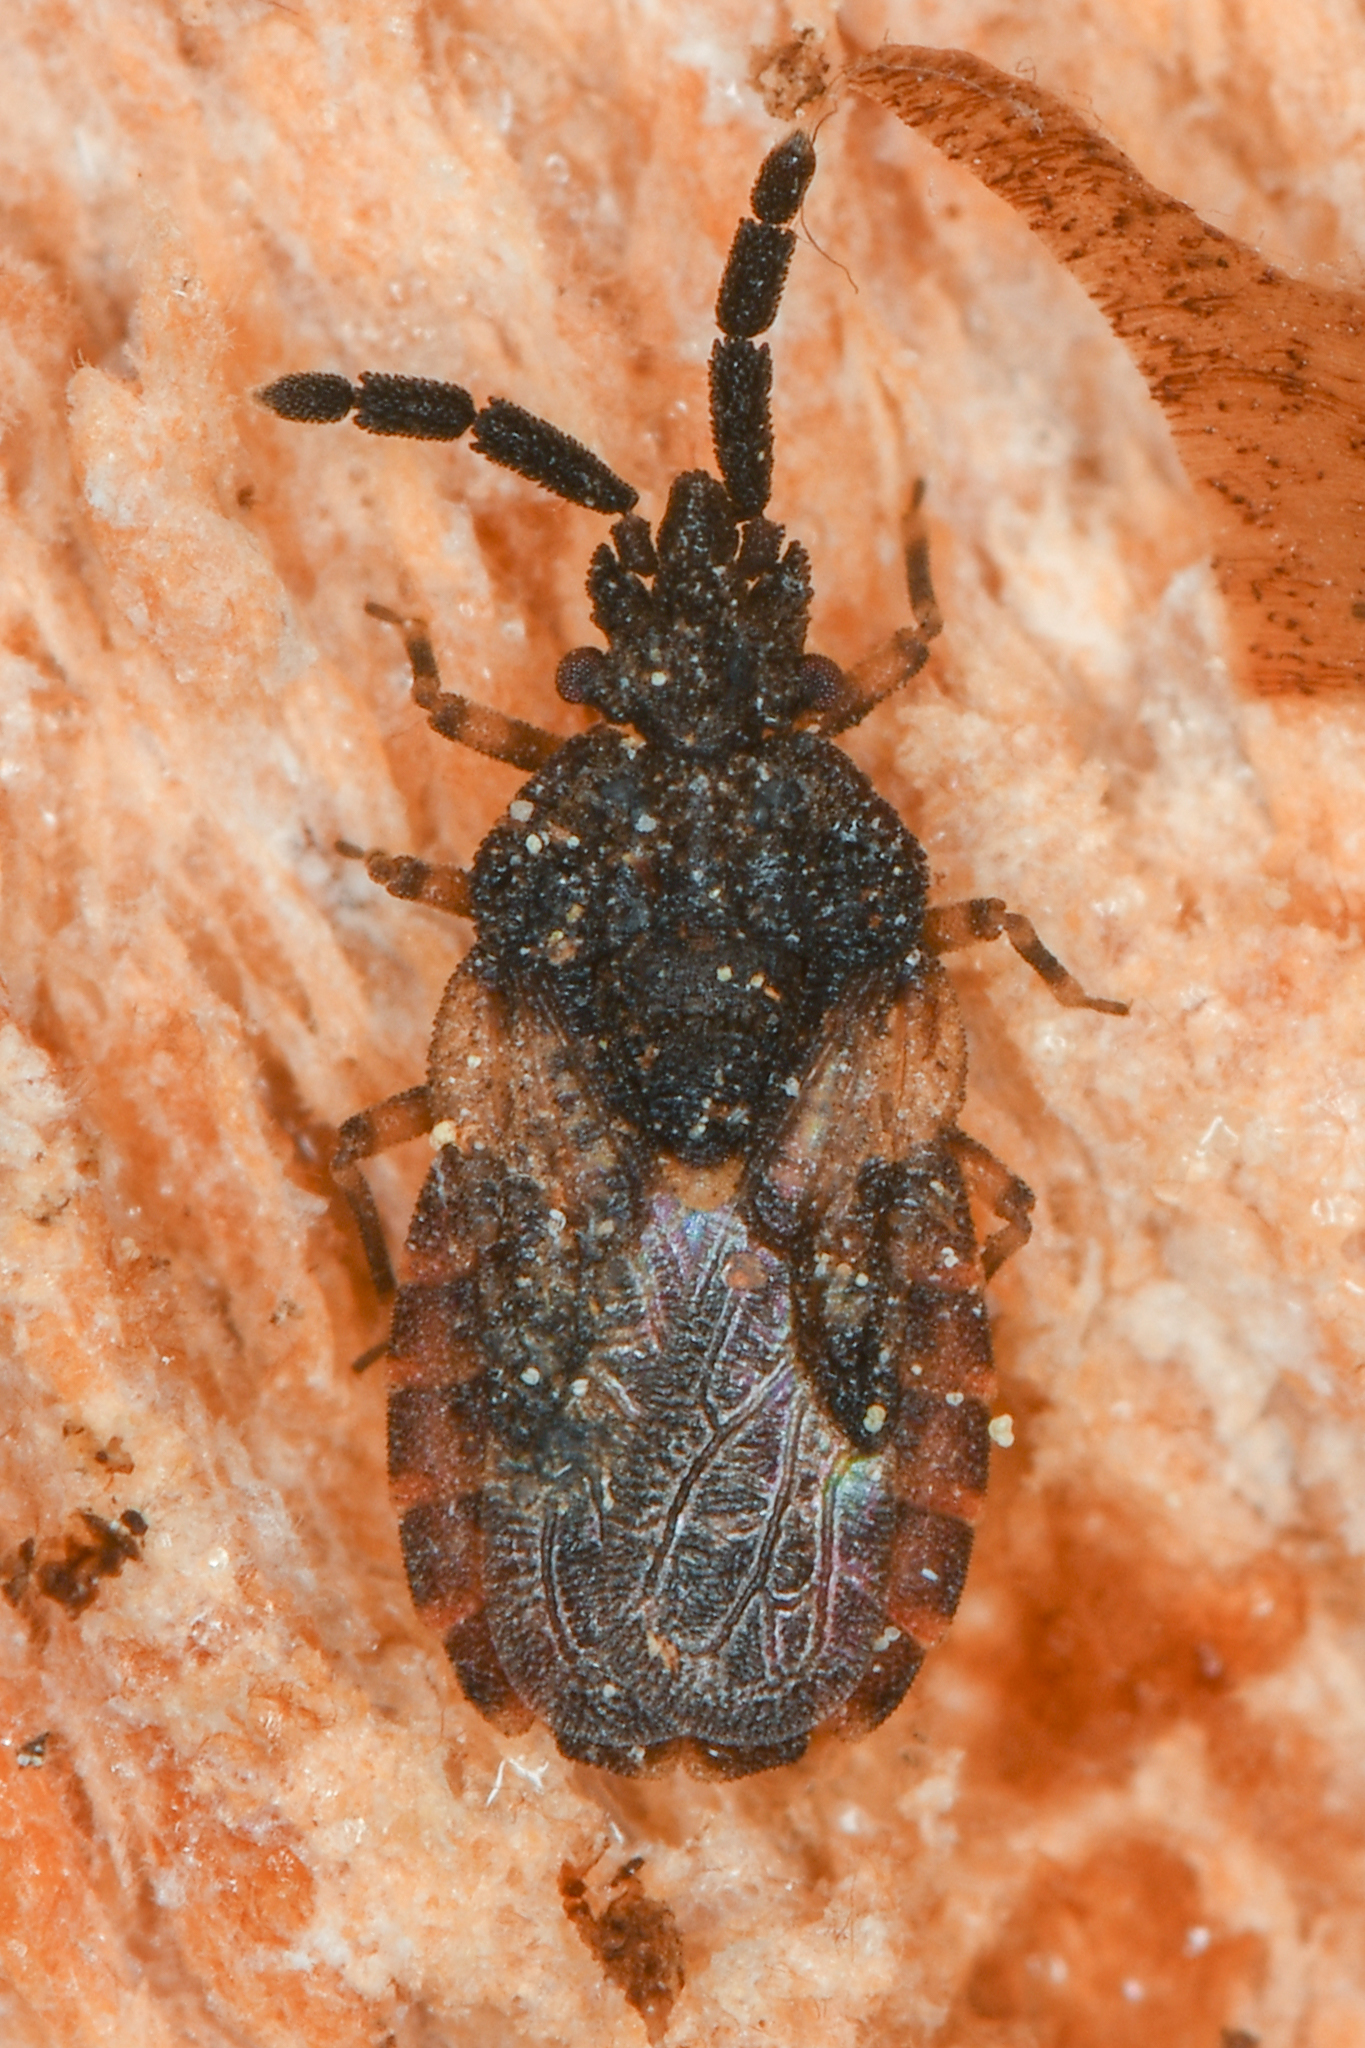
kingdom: Animalia
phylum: Arthropoda
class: Insecta
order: Hemiptera
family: Aradidae
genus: Aradus
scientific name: Aradus behrensi
